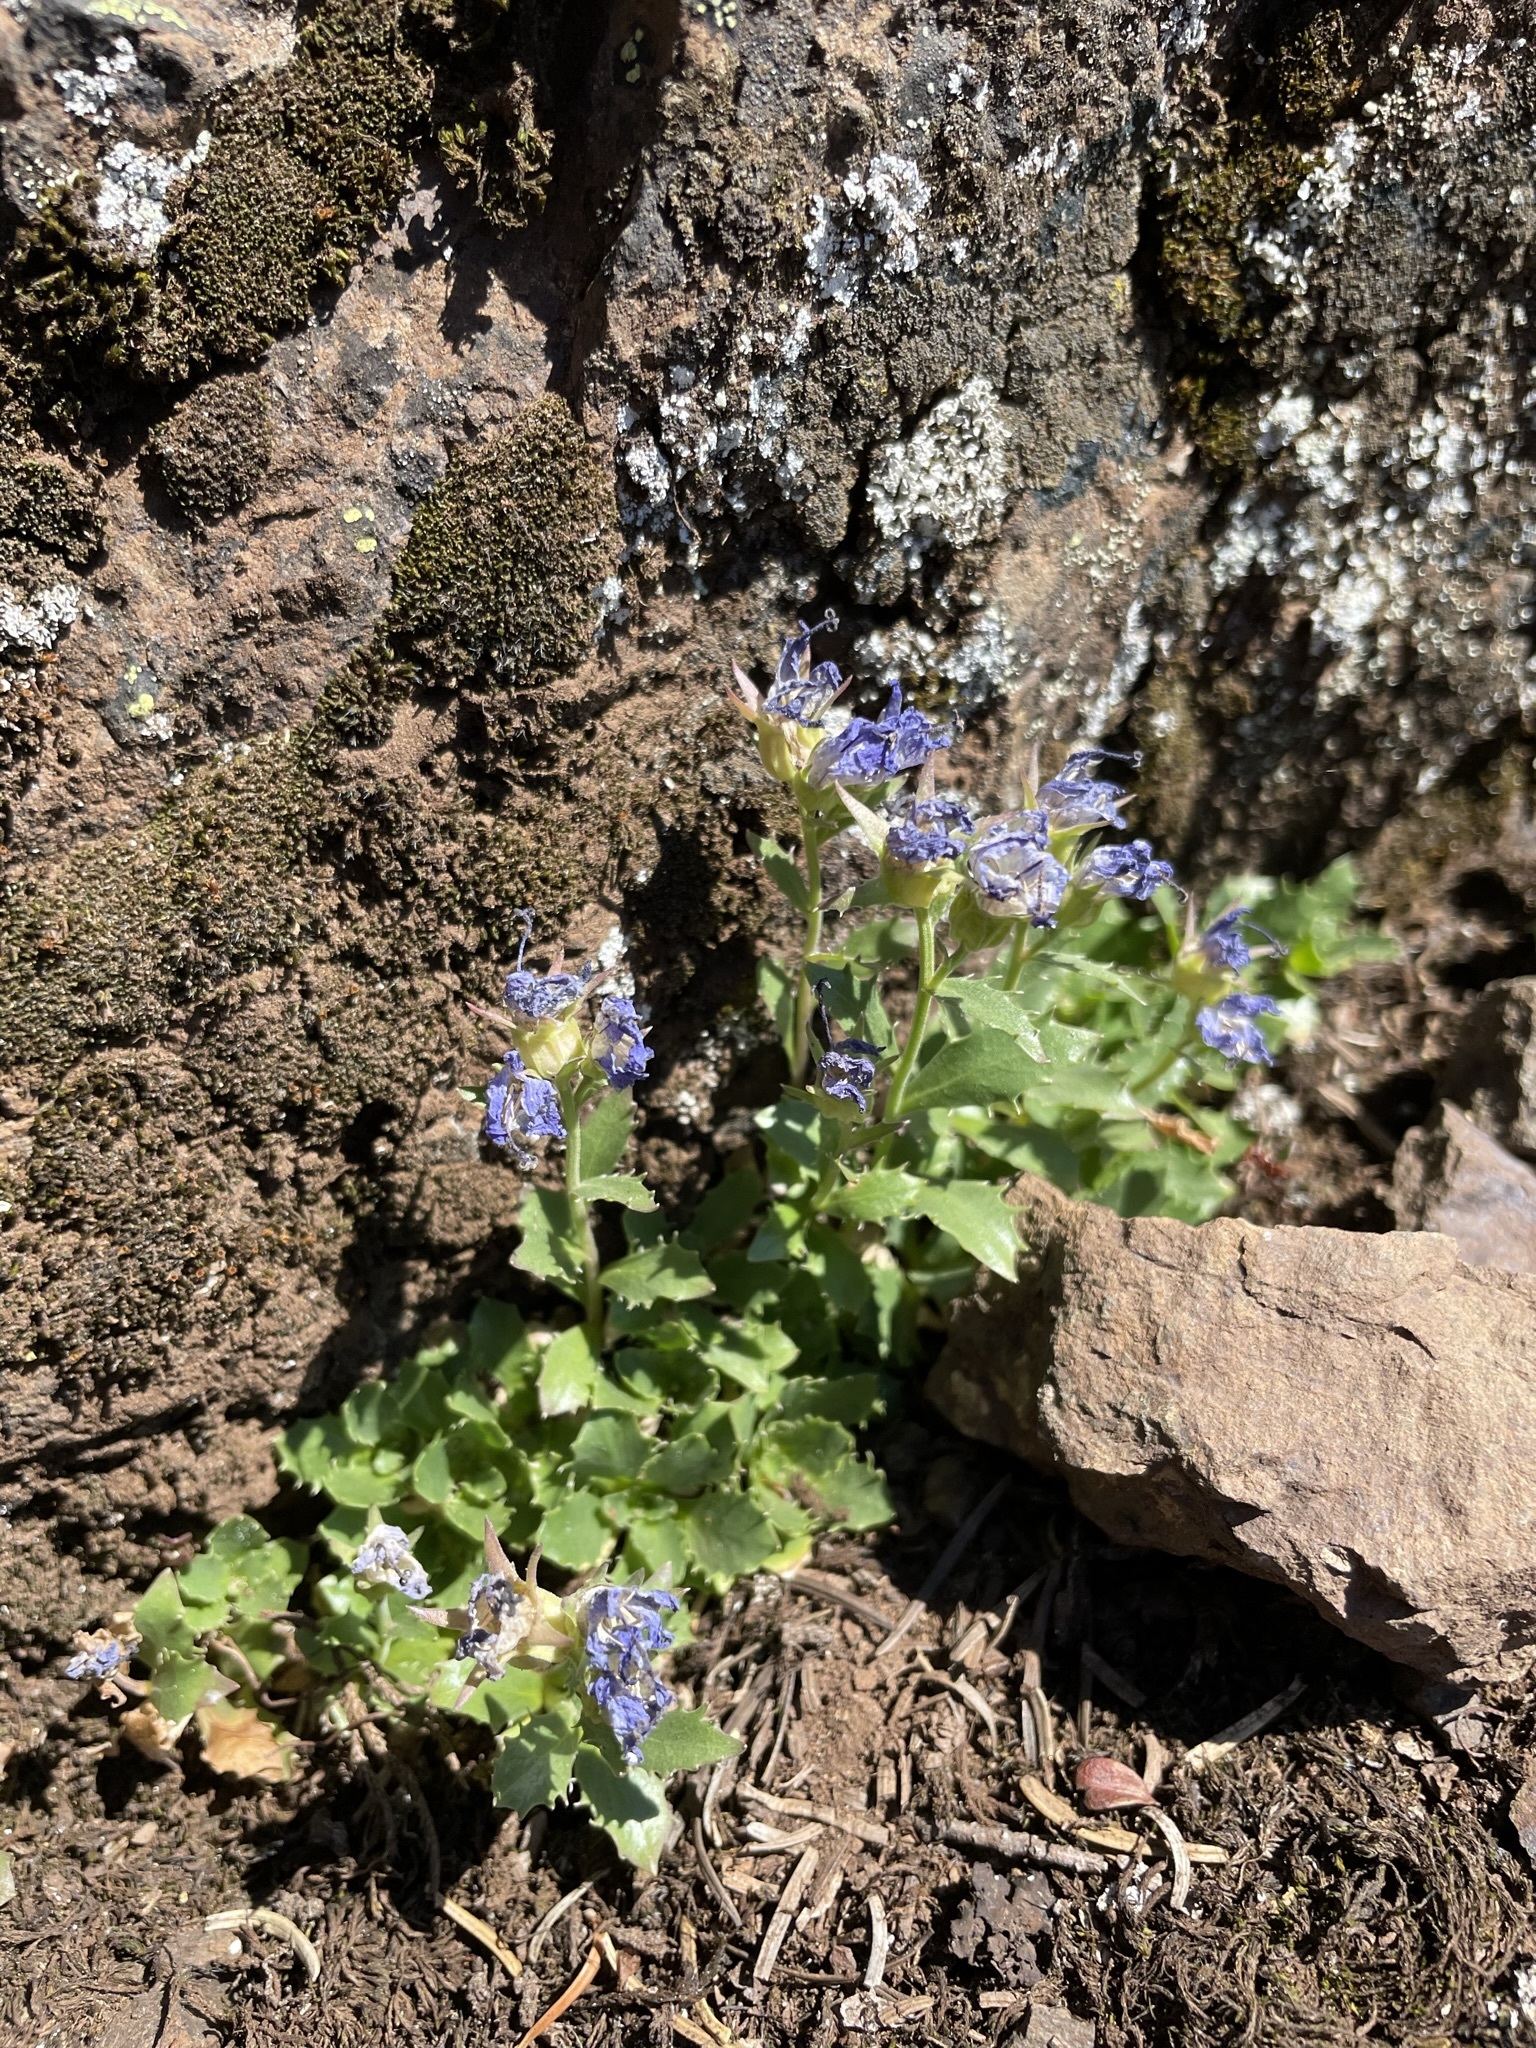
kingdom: Plantae
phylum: Tracheophyta
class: Magnoliopsida
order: Asterales
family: Campanulaceae
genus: Campanula
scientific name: Campanula piperi
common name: Olympic bellflower
